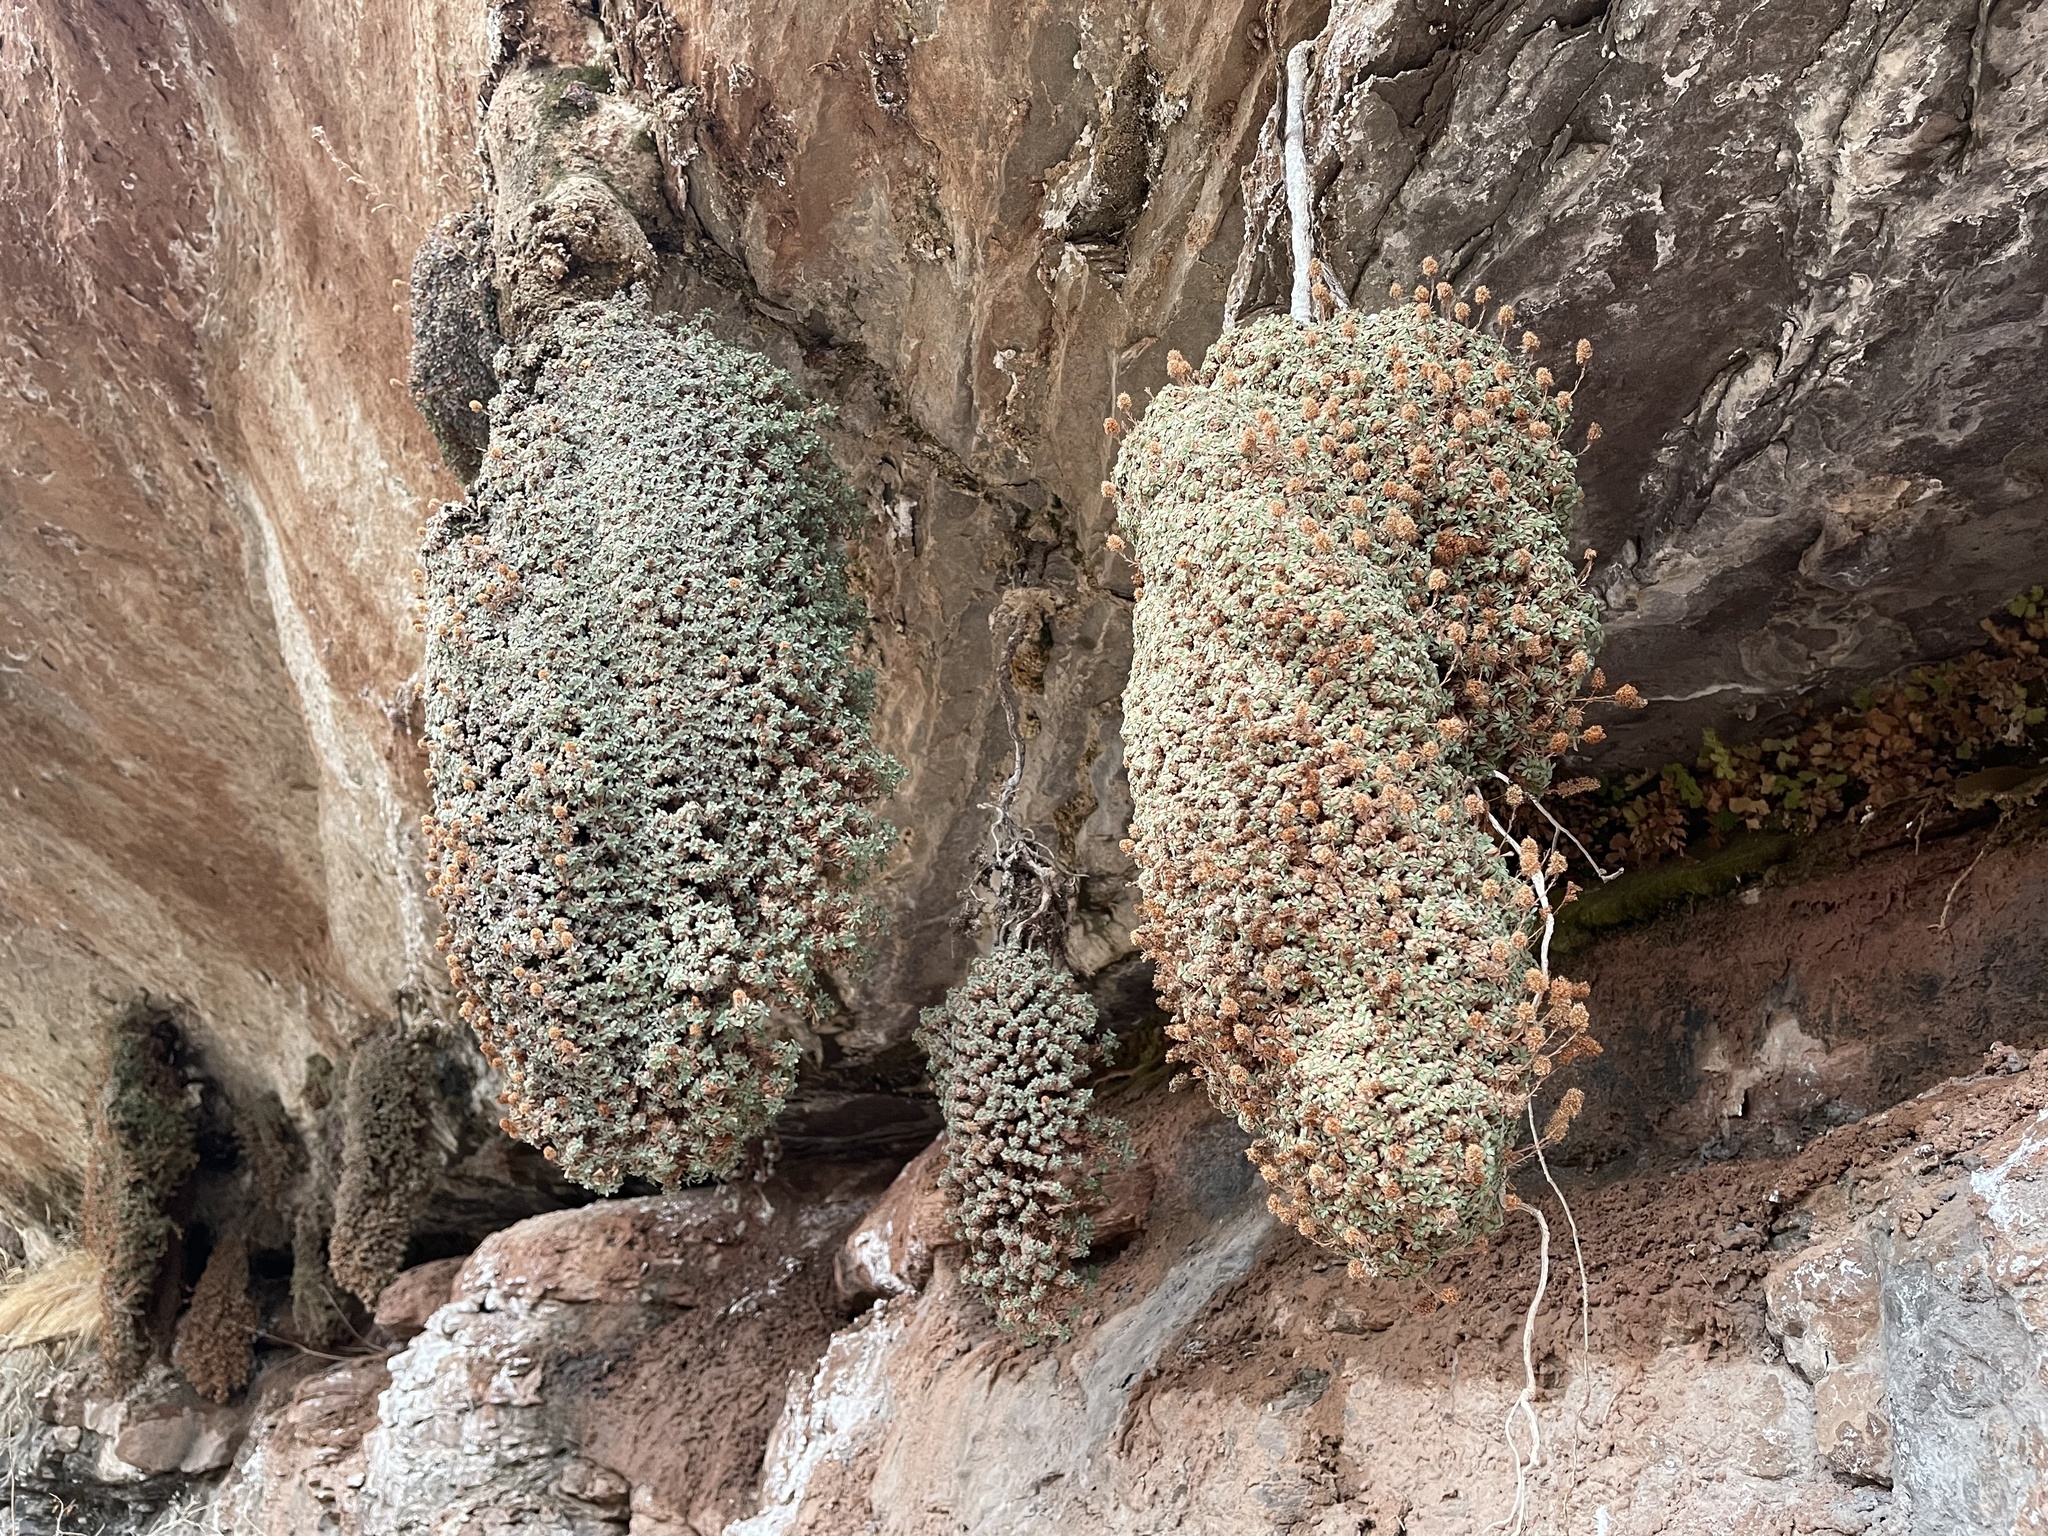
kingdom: Plantae
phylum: Tracheophyta
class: Magnoliopsida
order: Rosales
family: Rosaceae
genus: Petrophytum
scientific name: Petrophytum caespitosum
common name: Mat rockspirea
